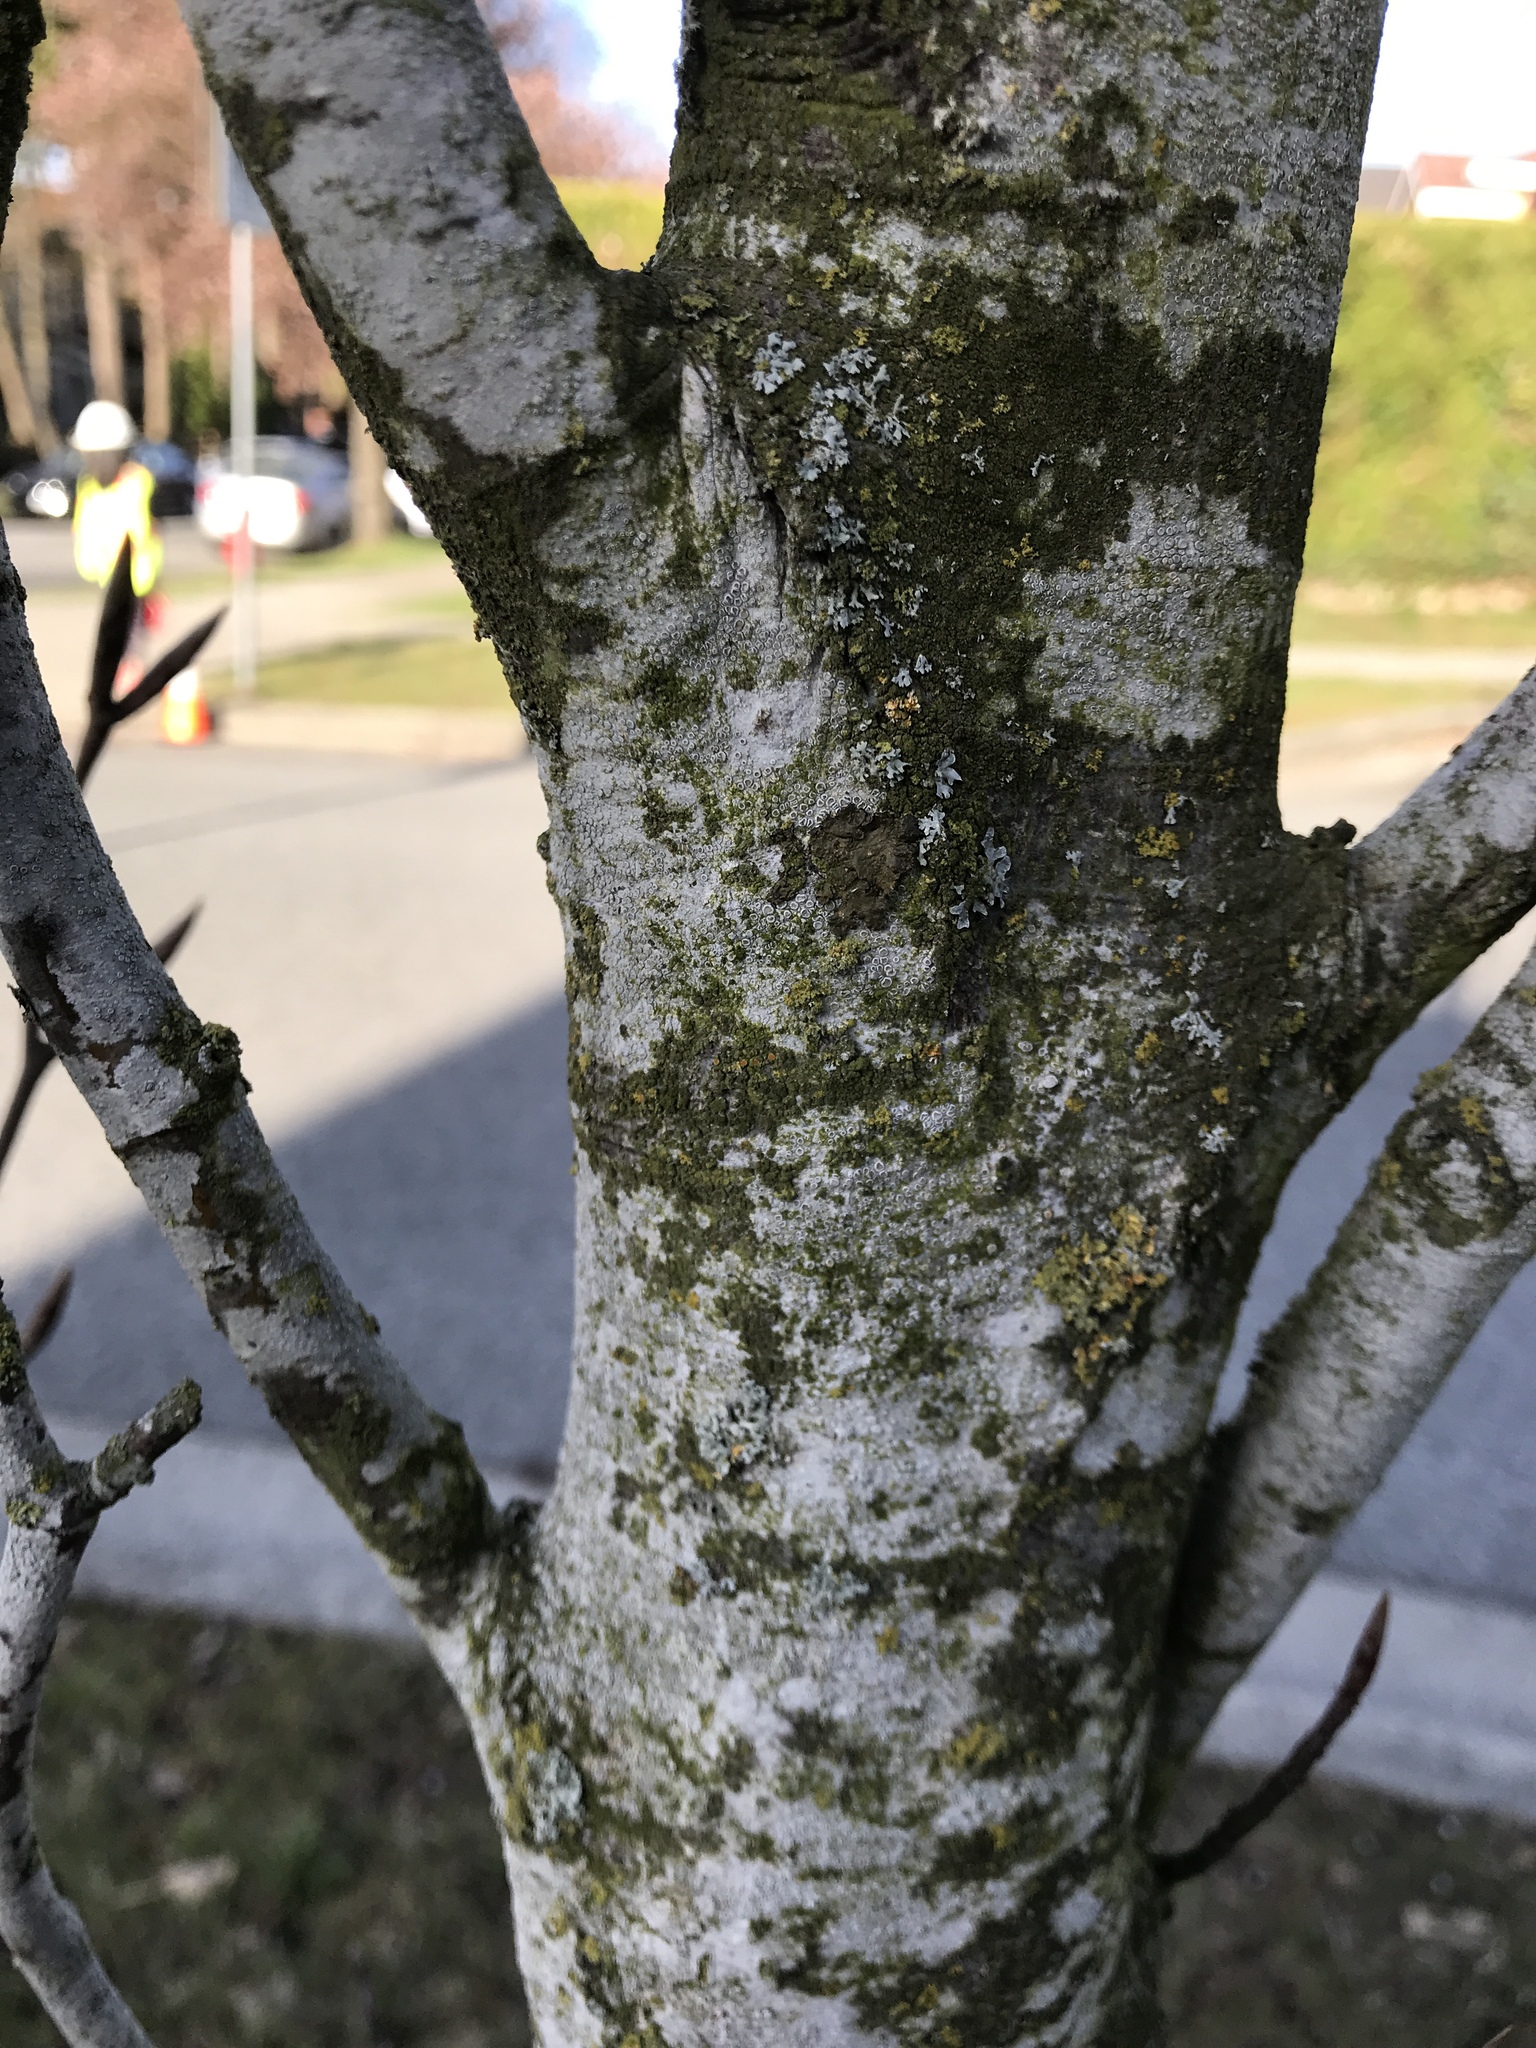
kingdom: Plantae
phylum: Tracheophyta
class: Magnoliopsida
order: Rosales
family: Rosaceae
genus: Sorbus
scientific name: Sorbus aucuparia
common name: Rowan
